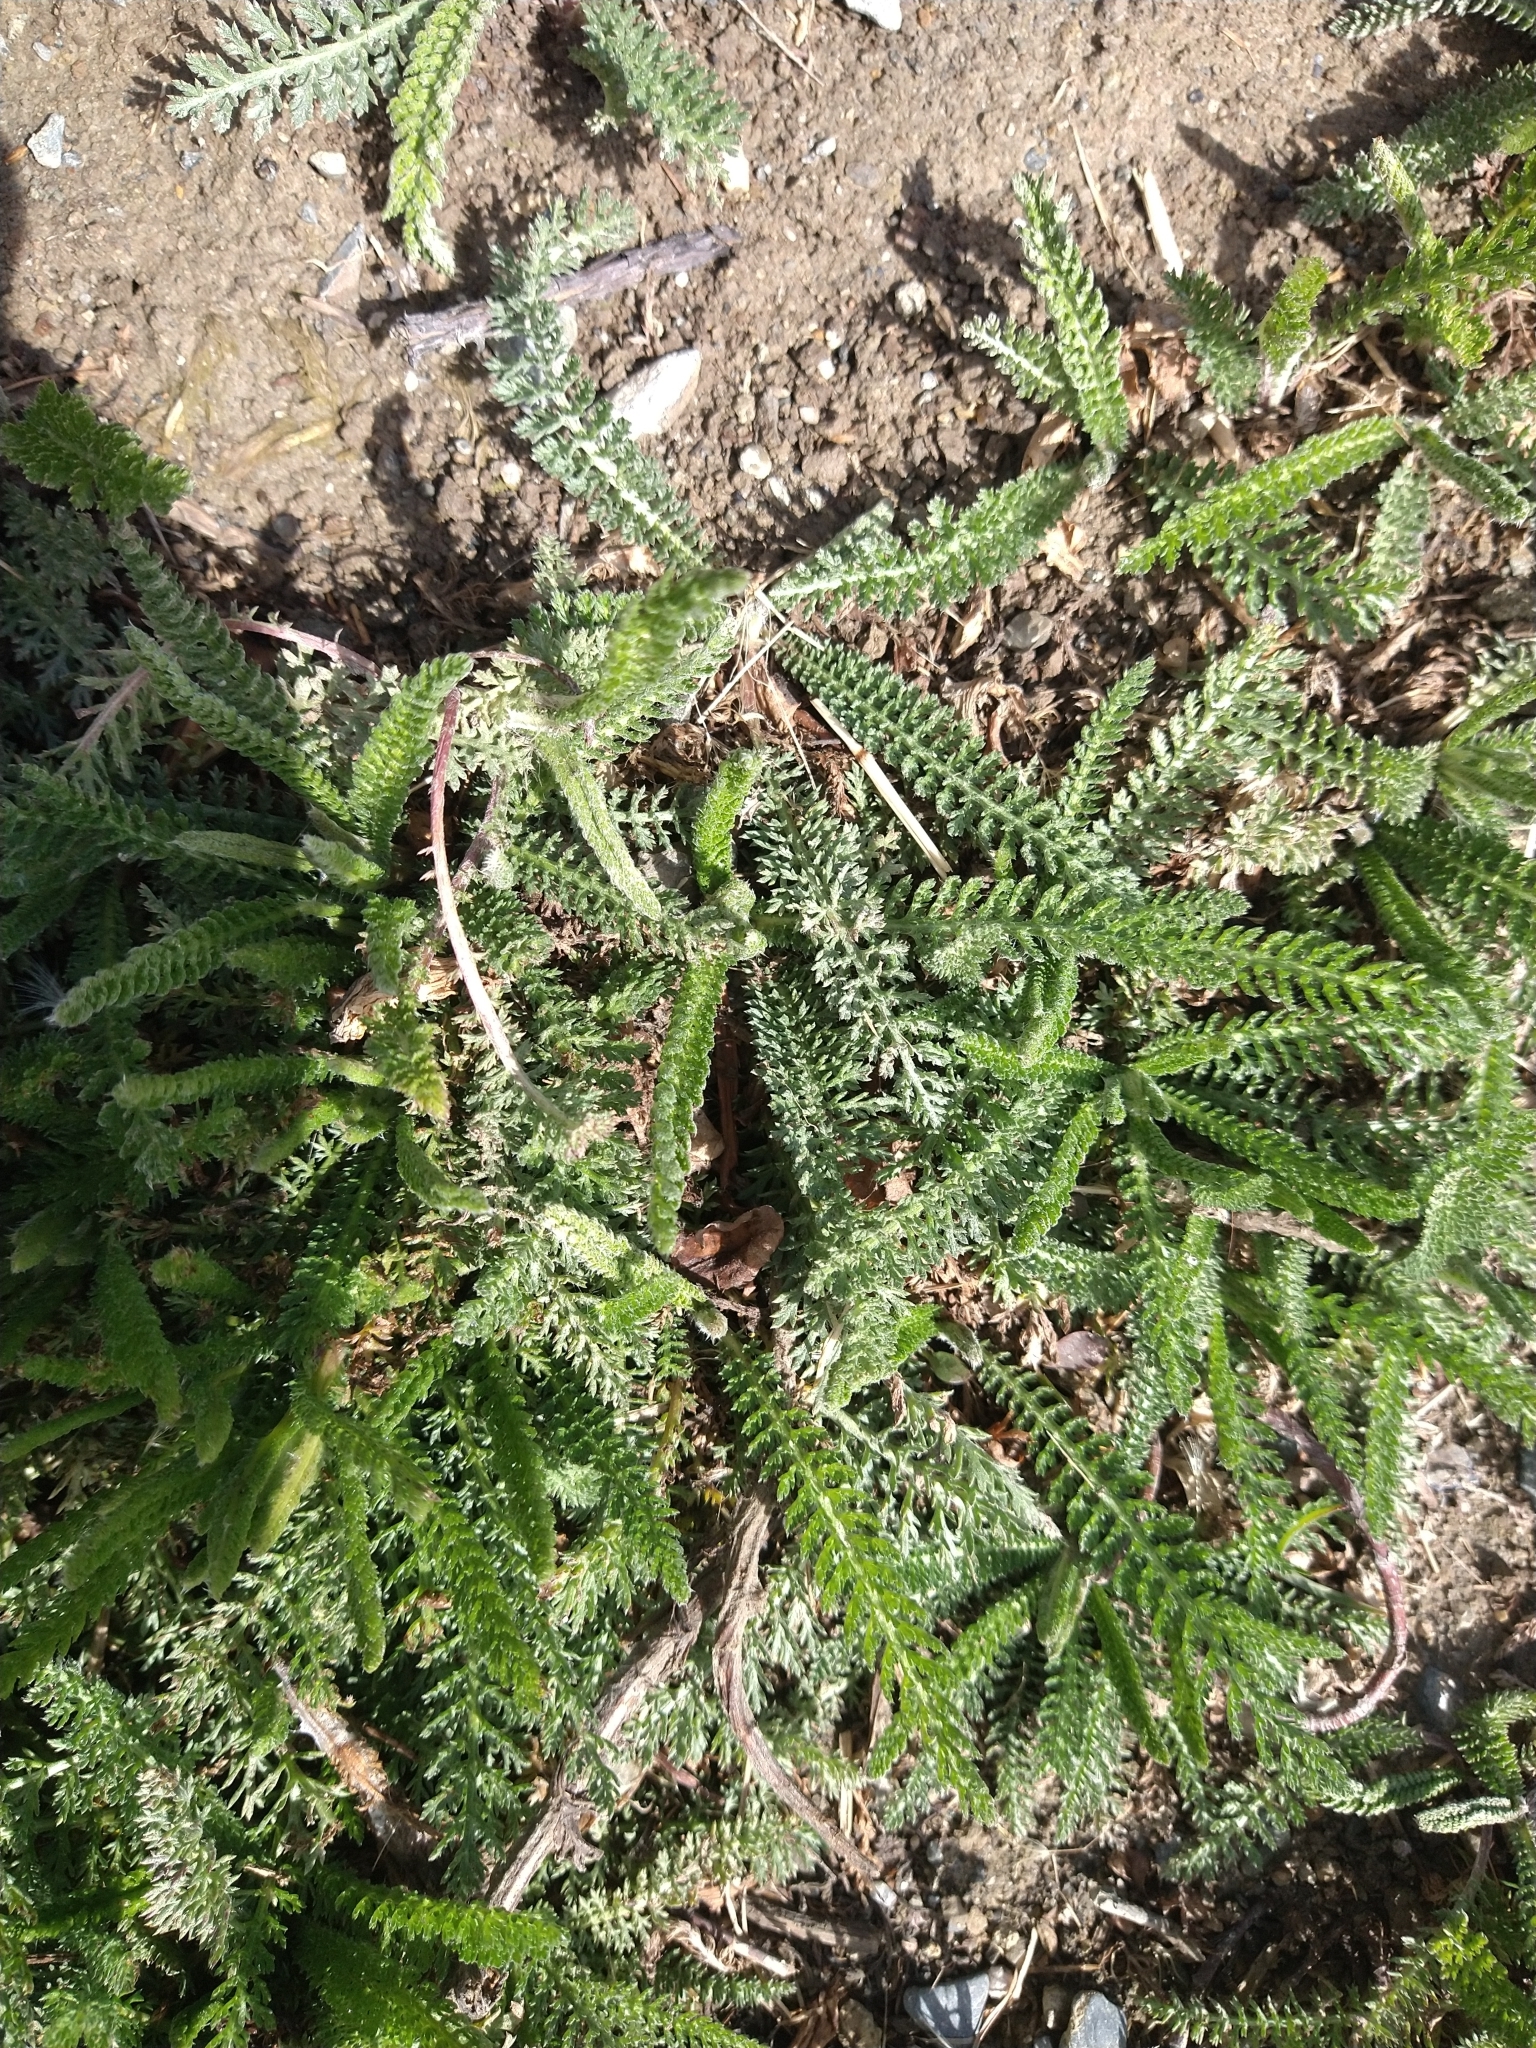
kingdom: Plantae
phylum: Tracheophyta
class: Magnoliopsida
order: Asterales
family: Asteraceae
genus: Achillea
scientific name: Achillea millefolium
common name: Yarrow
